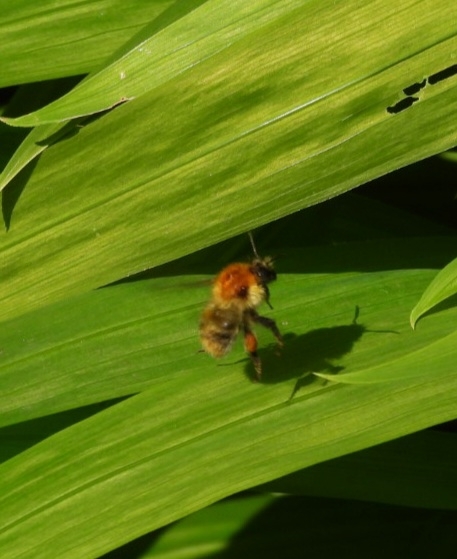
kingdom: Animalia
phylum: Arthropoda
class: Insecta
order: Hymenoptera
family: Apidae
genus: Bombus
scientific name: Bombus pascuorum
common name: Common carder bee
